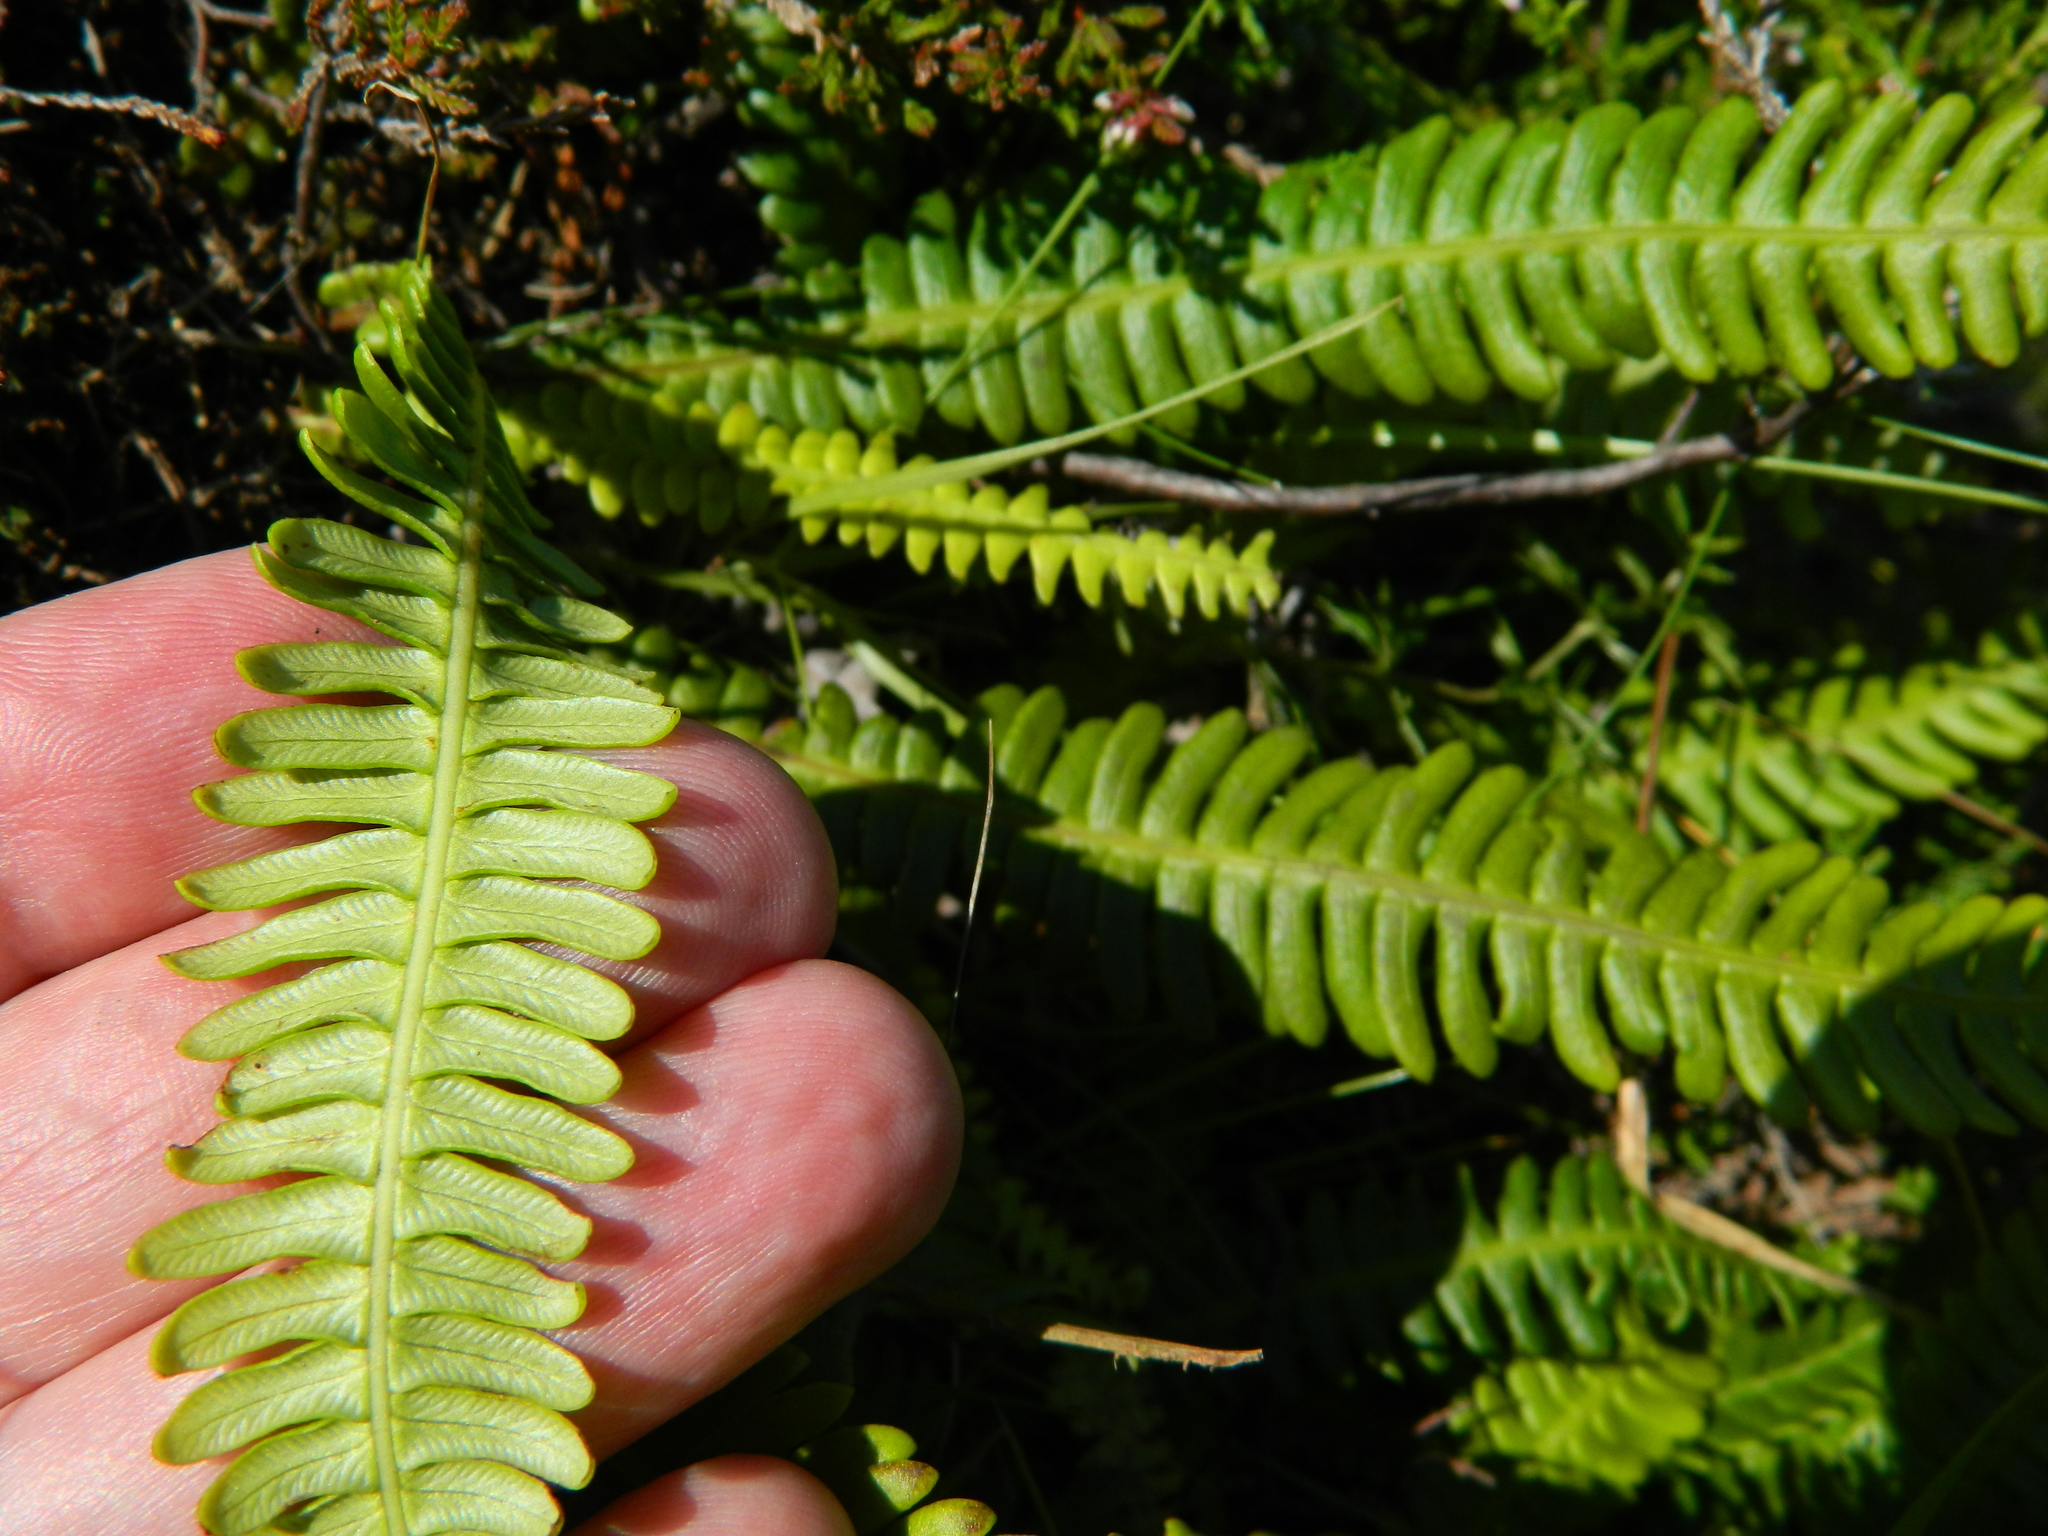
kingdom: Plantae
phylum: Tracheophyta
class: Polypodiopsida
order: Polypodiales
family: Blechnaceae
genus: Struthiopteris
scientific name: Struthiopteris spicant
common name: Deer fern
